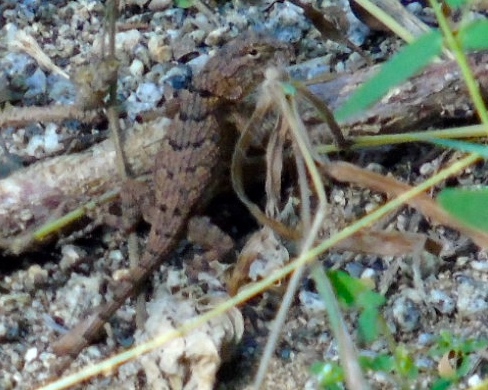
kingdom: Animalia
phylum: Chordata
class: Squamata
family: Phrynosomatidae
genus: Sceloporus
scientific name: Sceloporus nelsoni
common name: Nelson's spiny lizard
